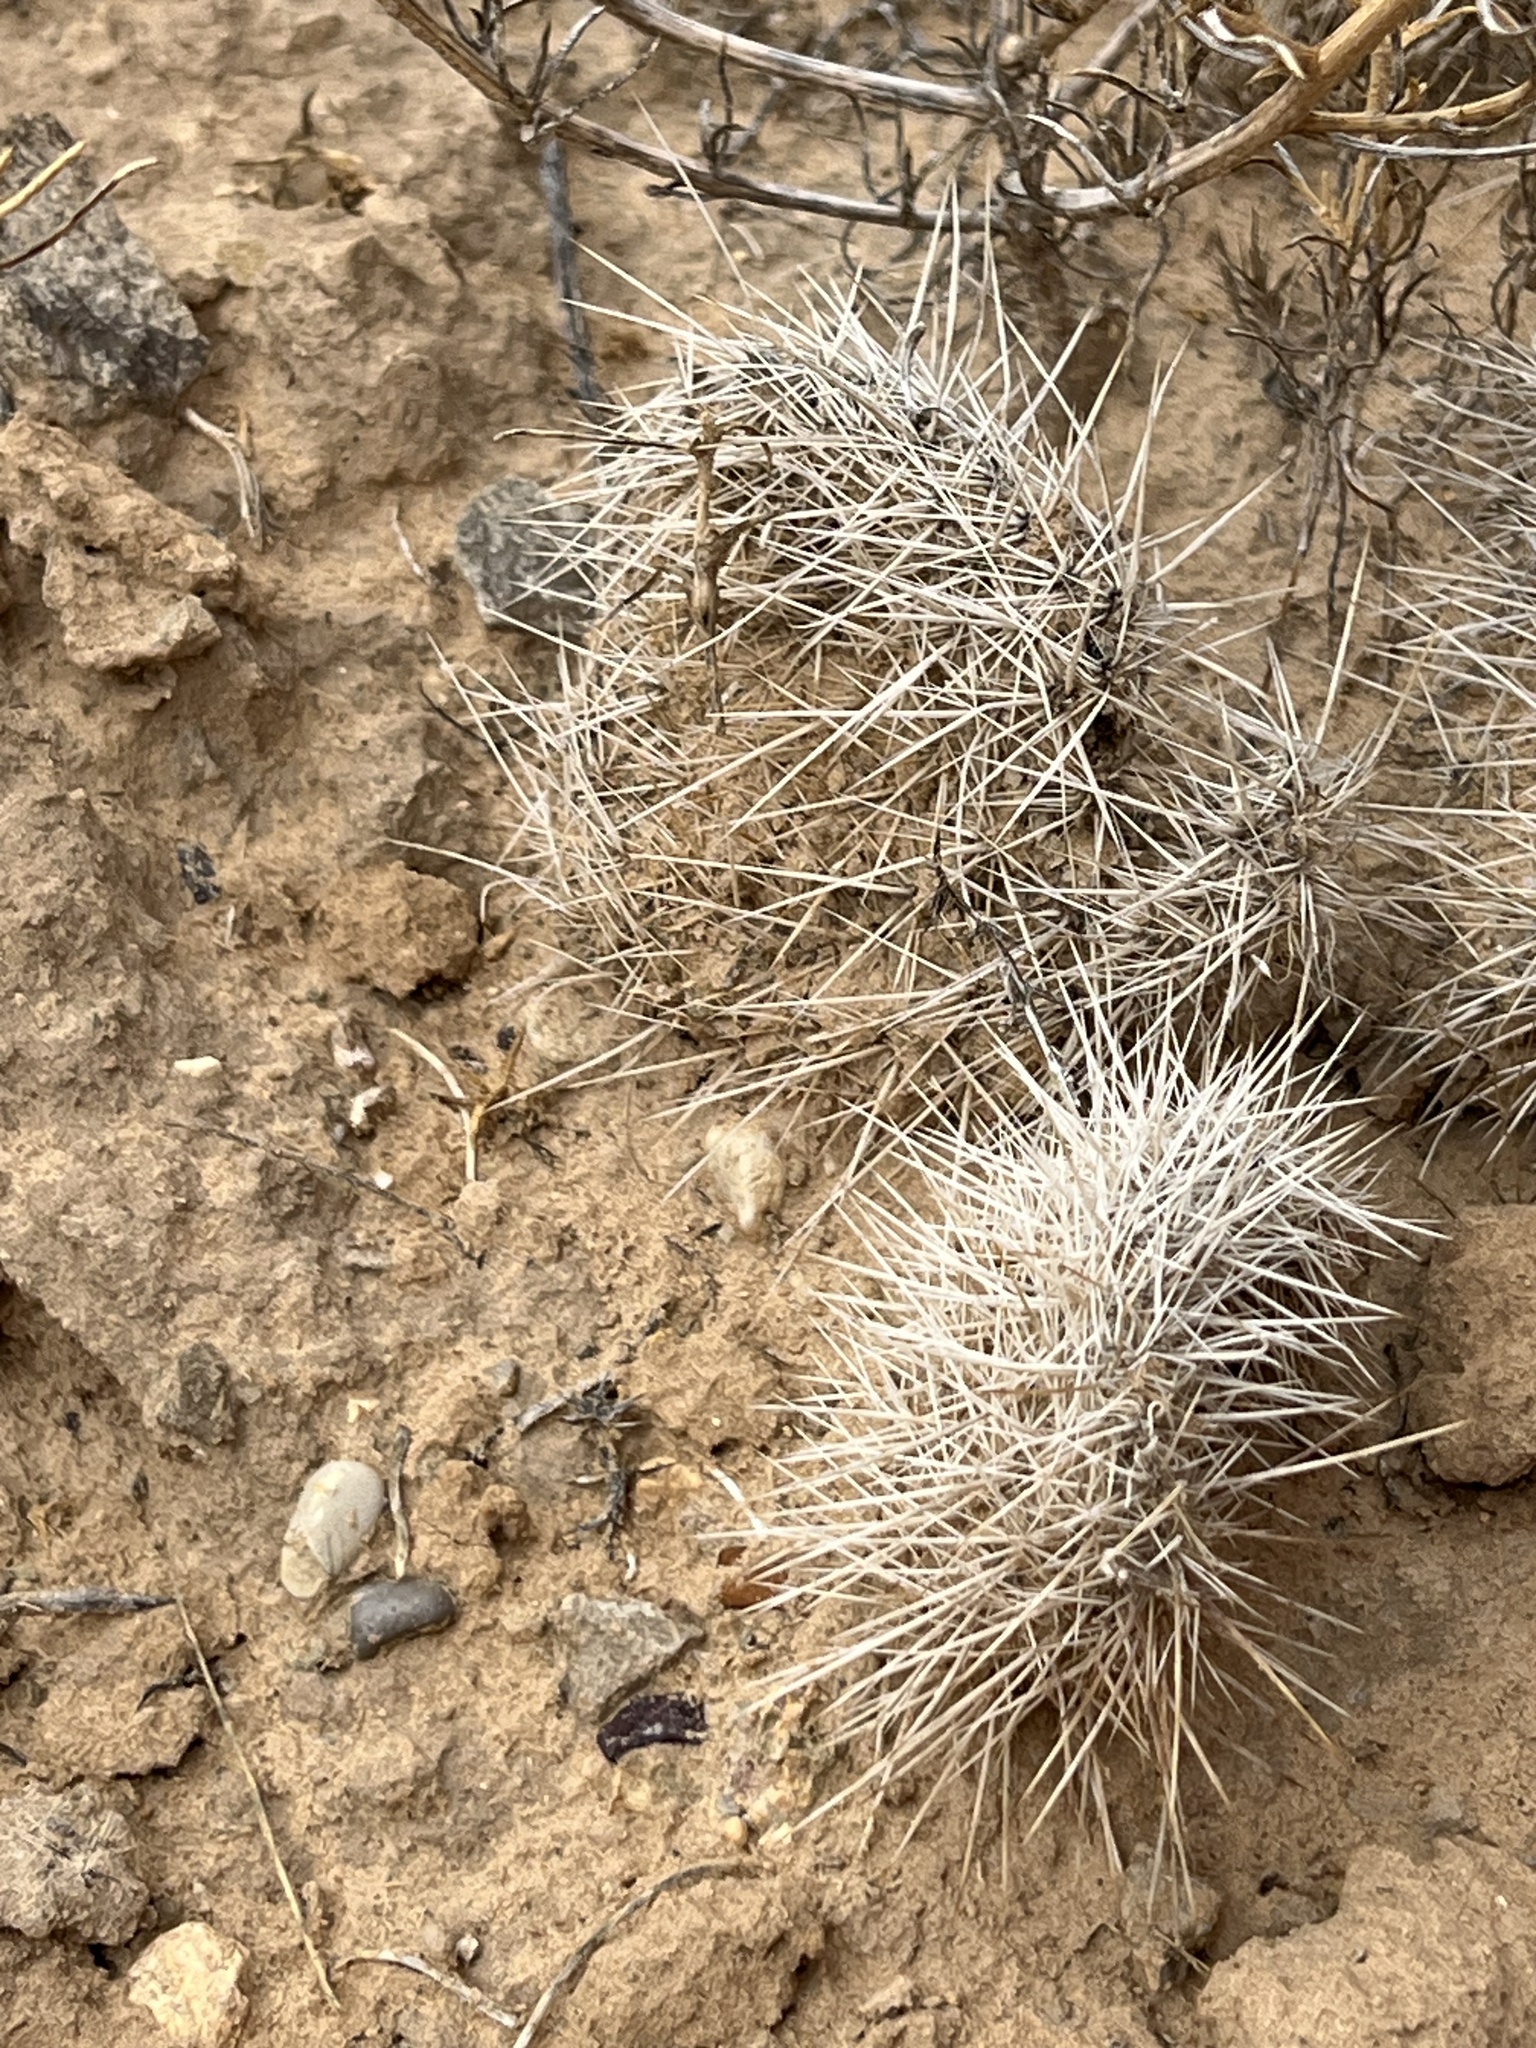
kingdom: Plantae
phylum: Tracheophyta
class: Magnoliopsida
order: Caryophyllales
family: Cactaceae
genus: Opuntia
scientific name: Opuntia polyacantha
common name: Plains prickly-pear
